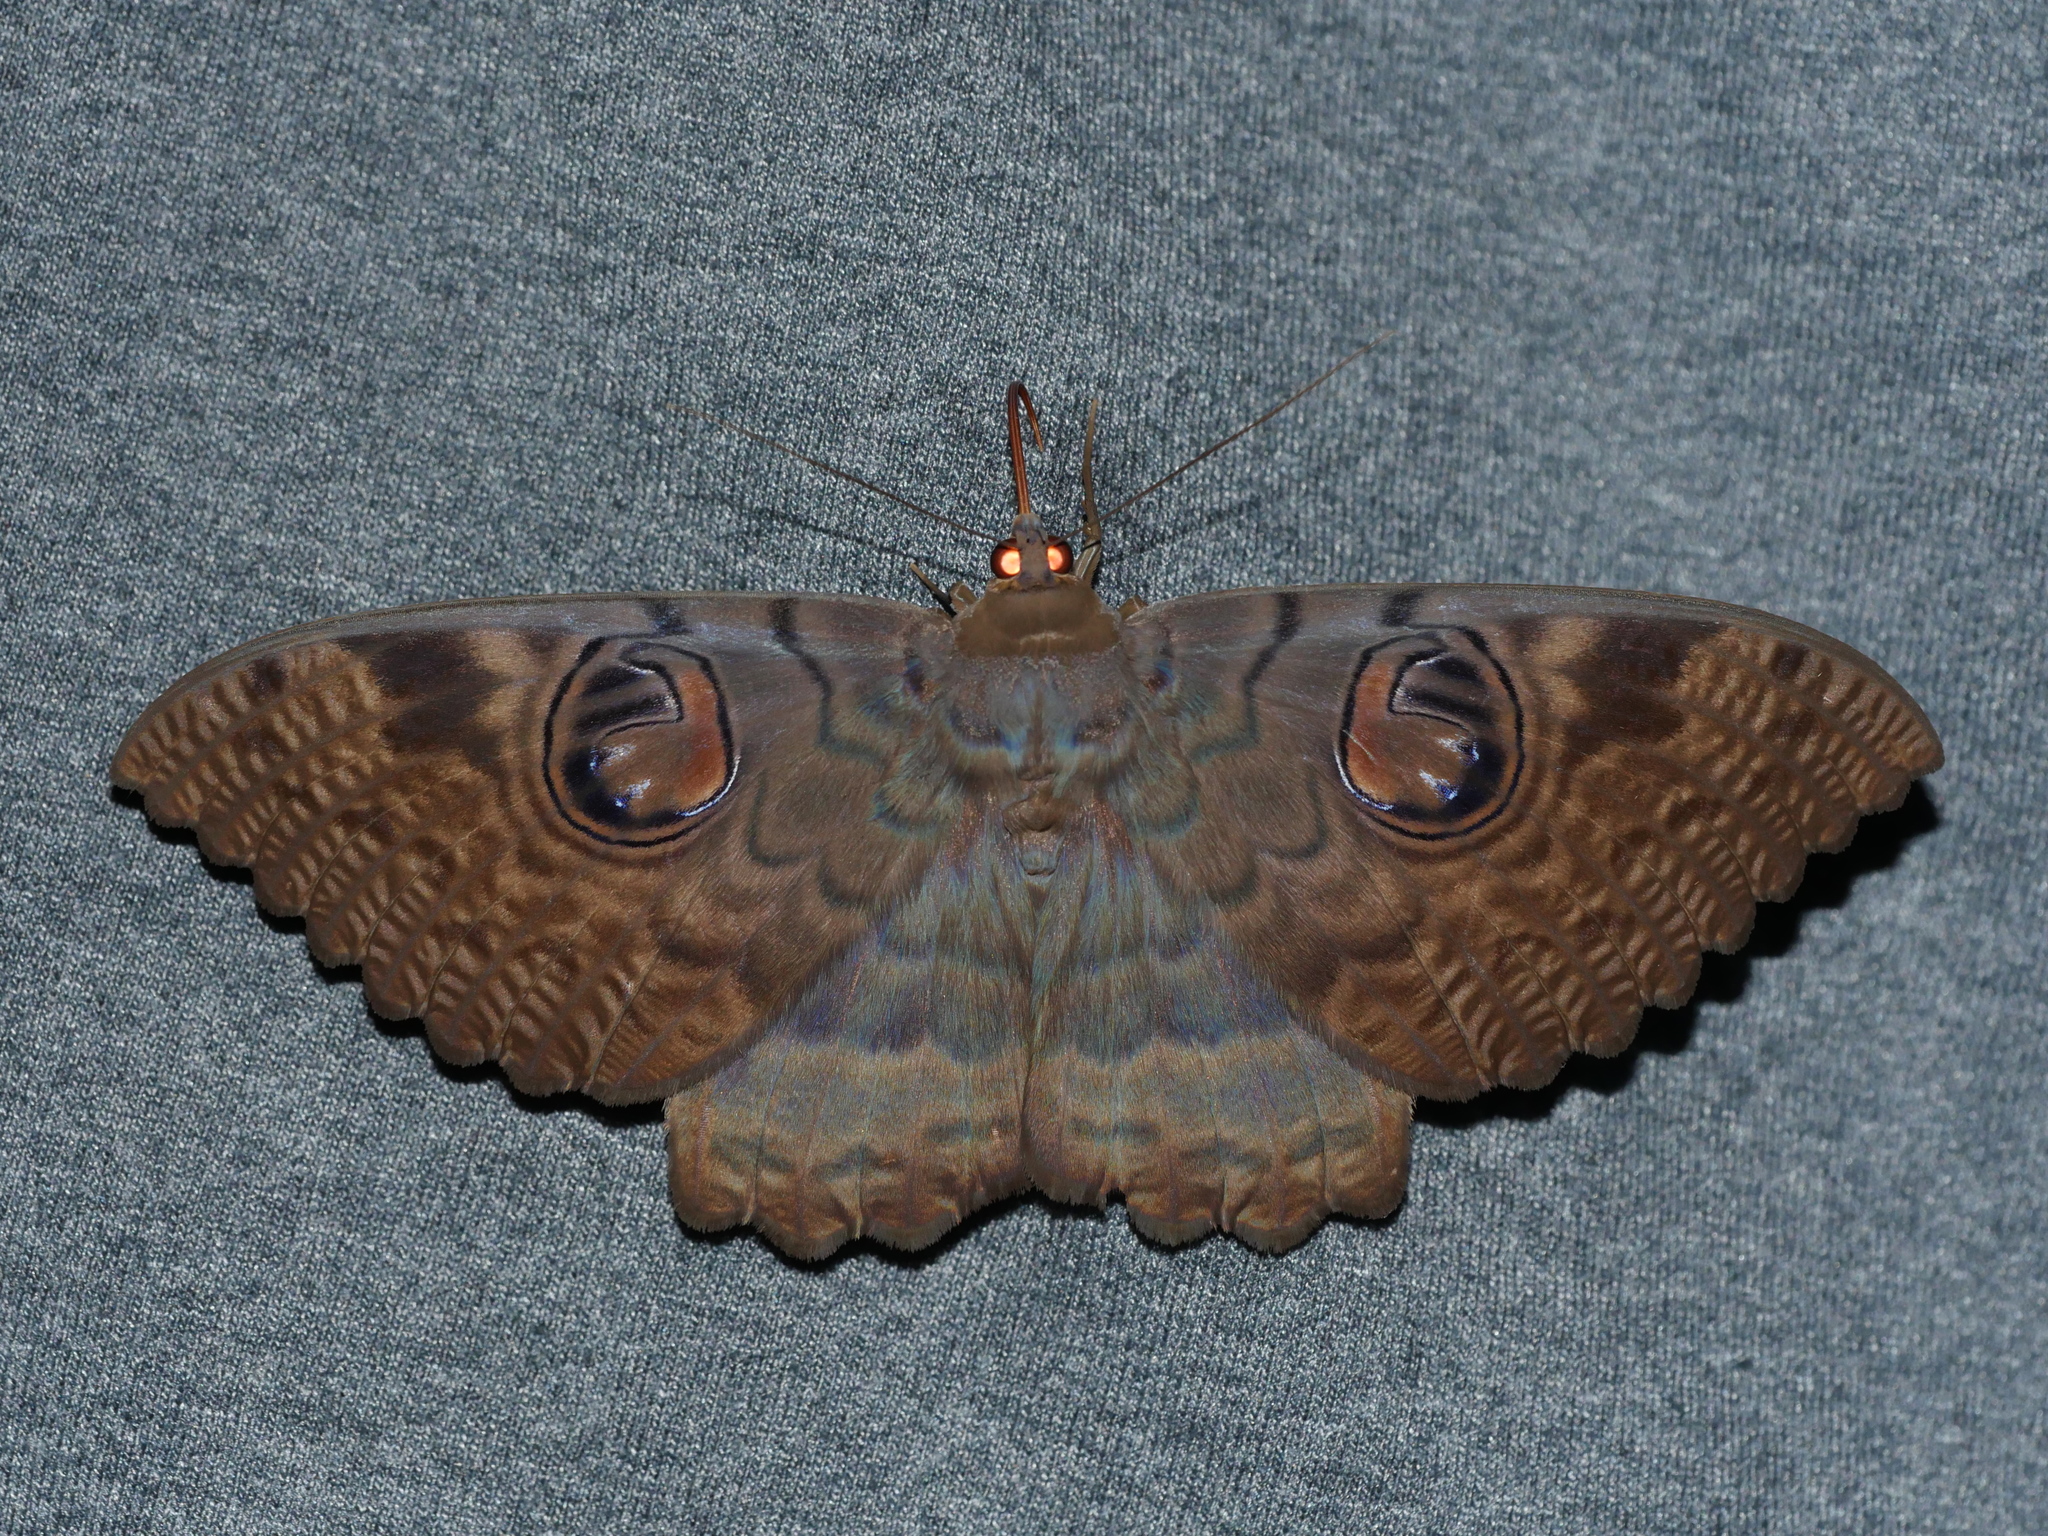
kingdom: Animalia
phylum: Arthropoda
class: Insecta
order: Lepidoptera
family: Erebidae
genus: Erebus
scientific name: Erebus walkeri
